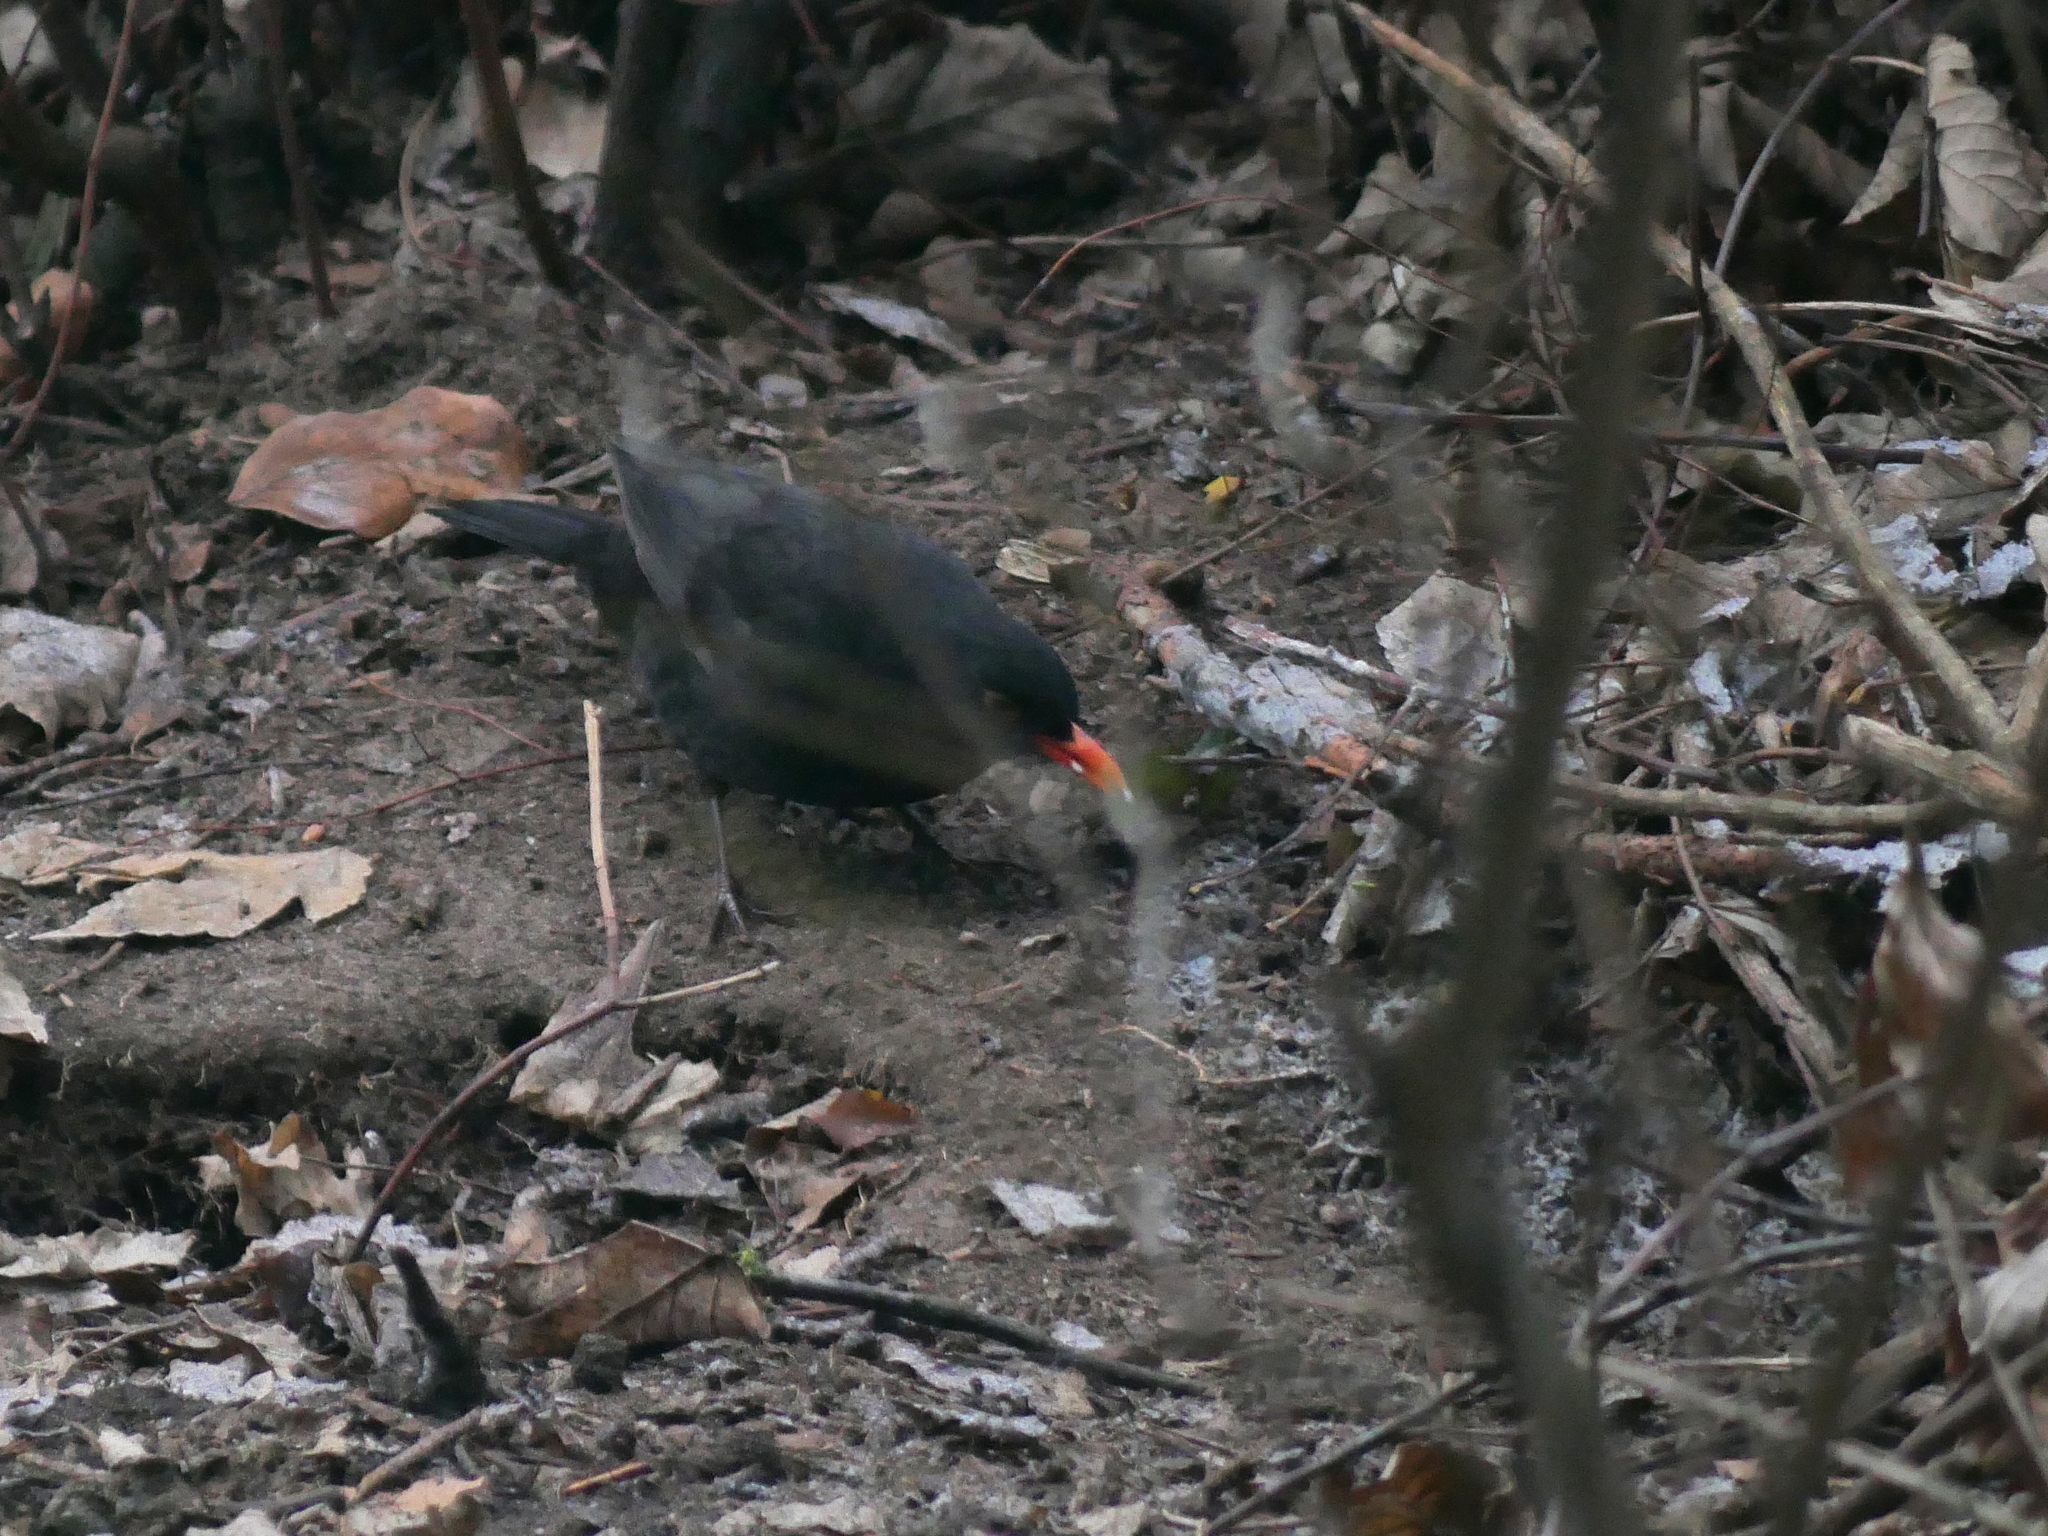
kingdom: Animalia
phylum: Chordata
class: Aves
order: Passeriformes
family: Turdidae
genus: Turdus
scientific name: Turdus merula
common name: Common blackbird
